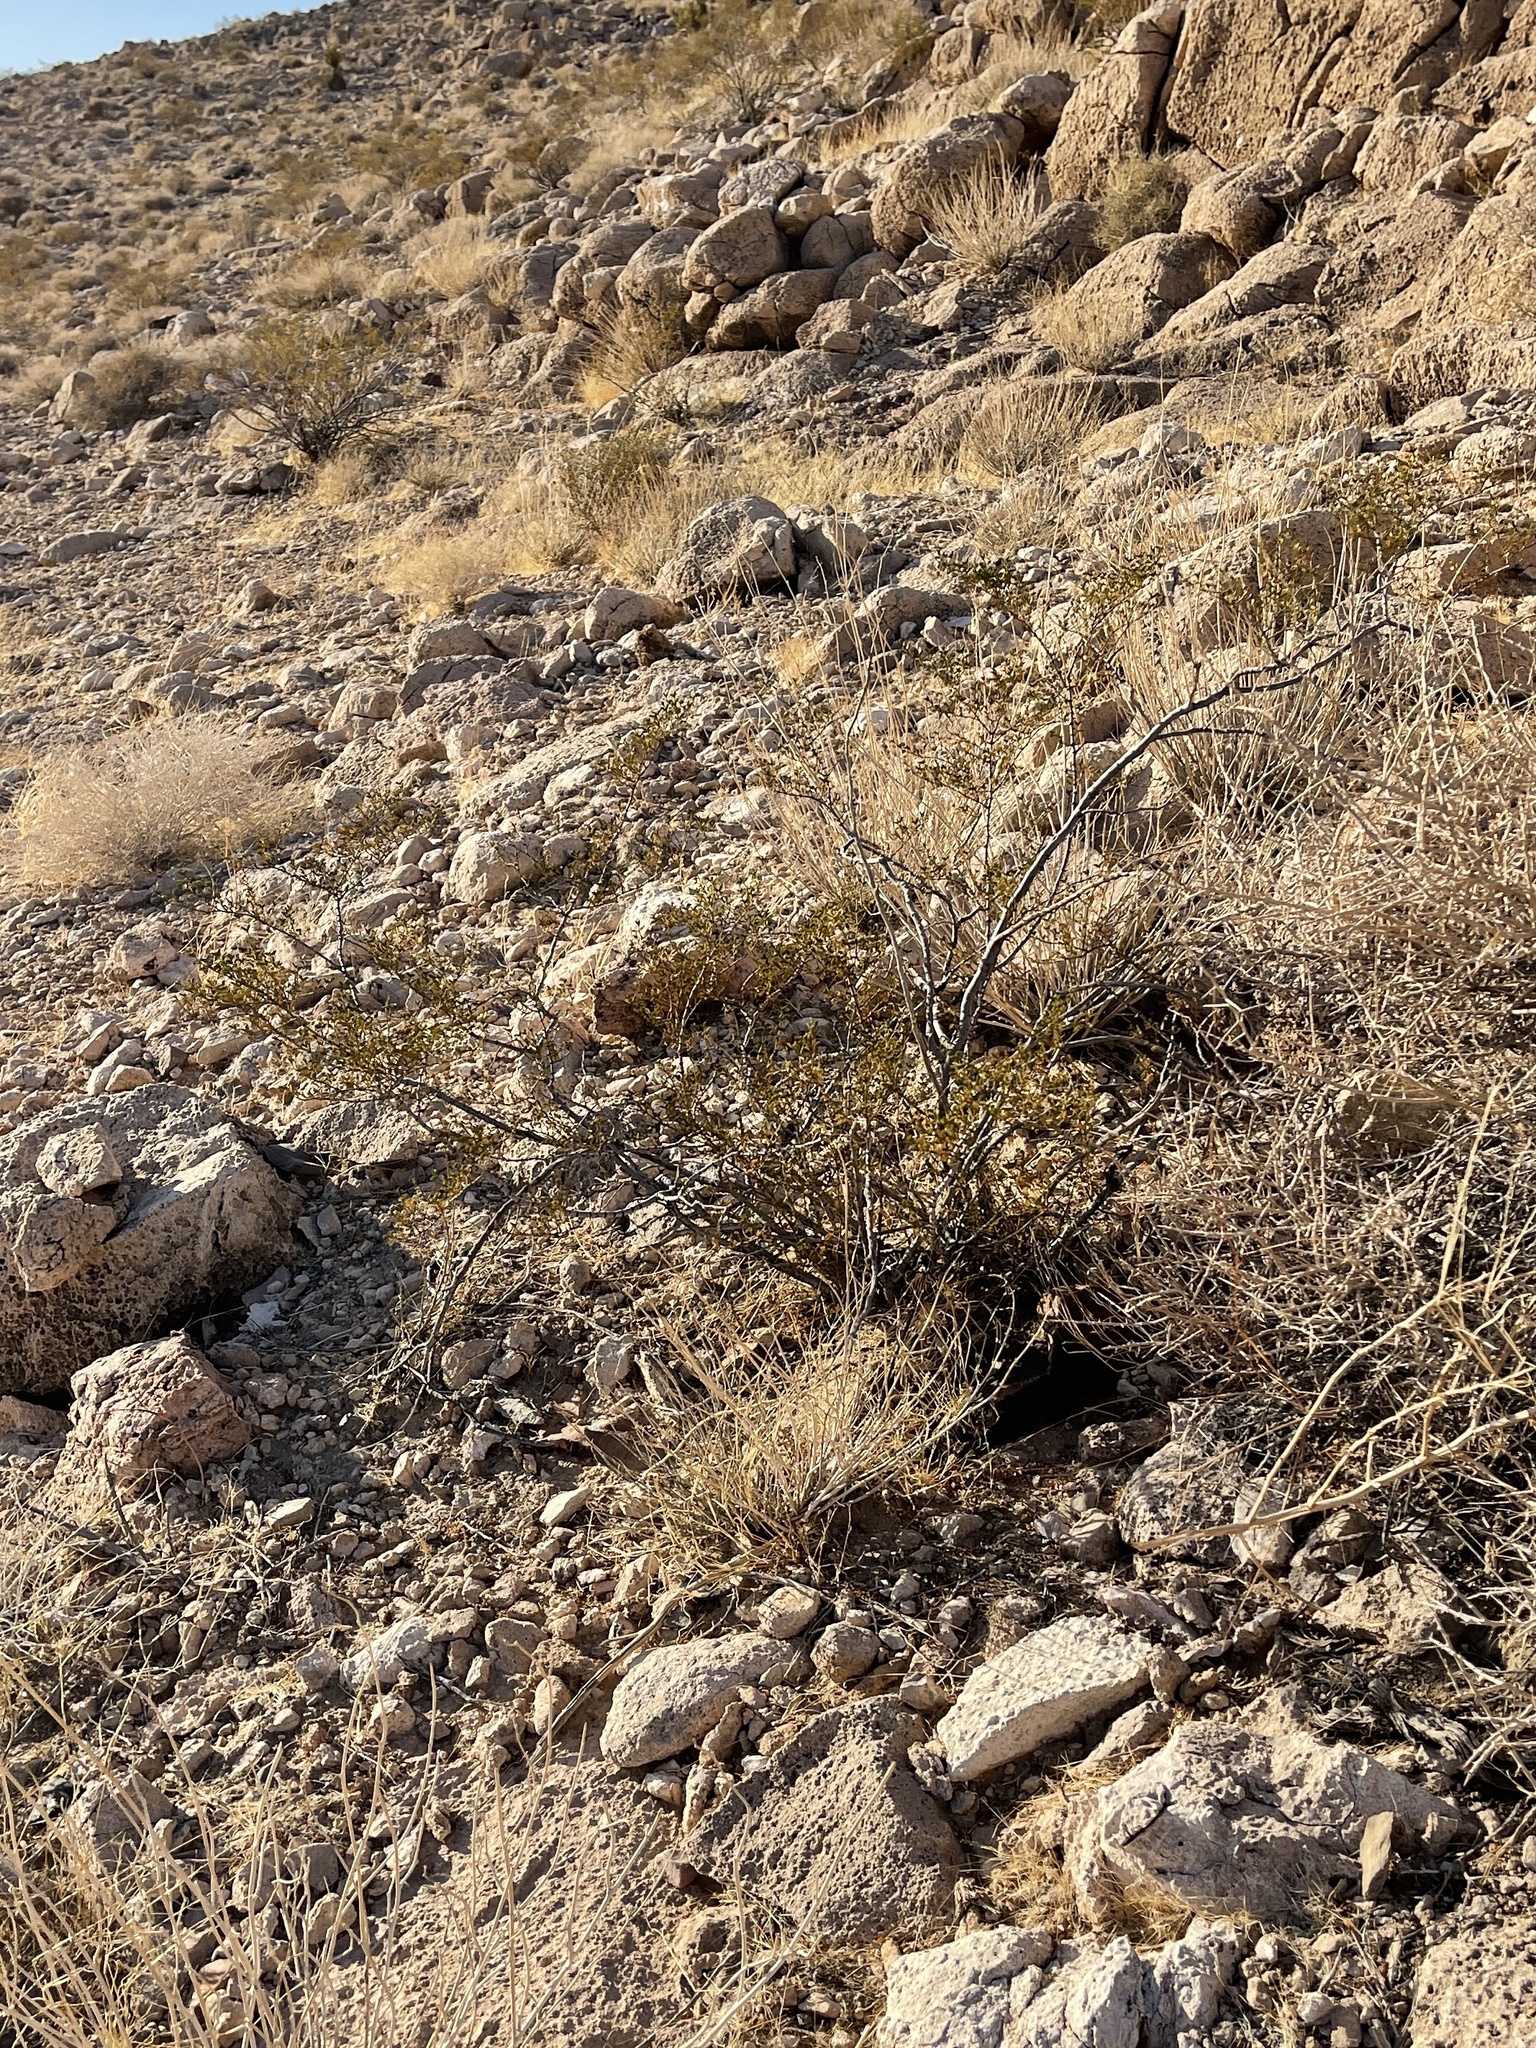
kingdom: Plantae
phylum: Tracheophyta
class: Magnoliopsida
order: Zygophyllales
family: Zygophyllaceae
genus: Larrea
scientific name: Larrea tridentata
